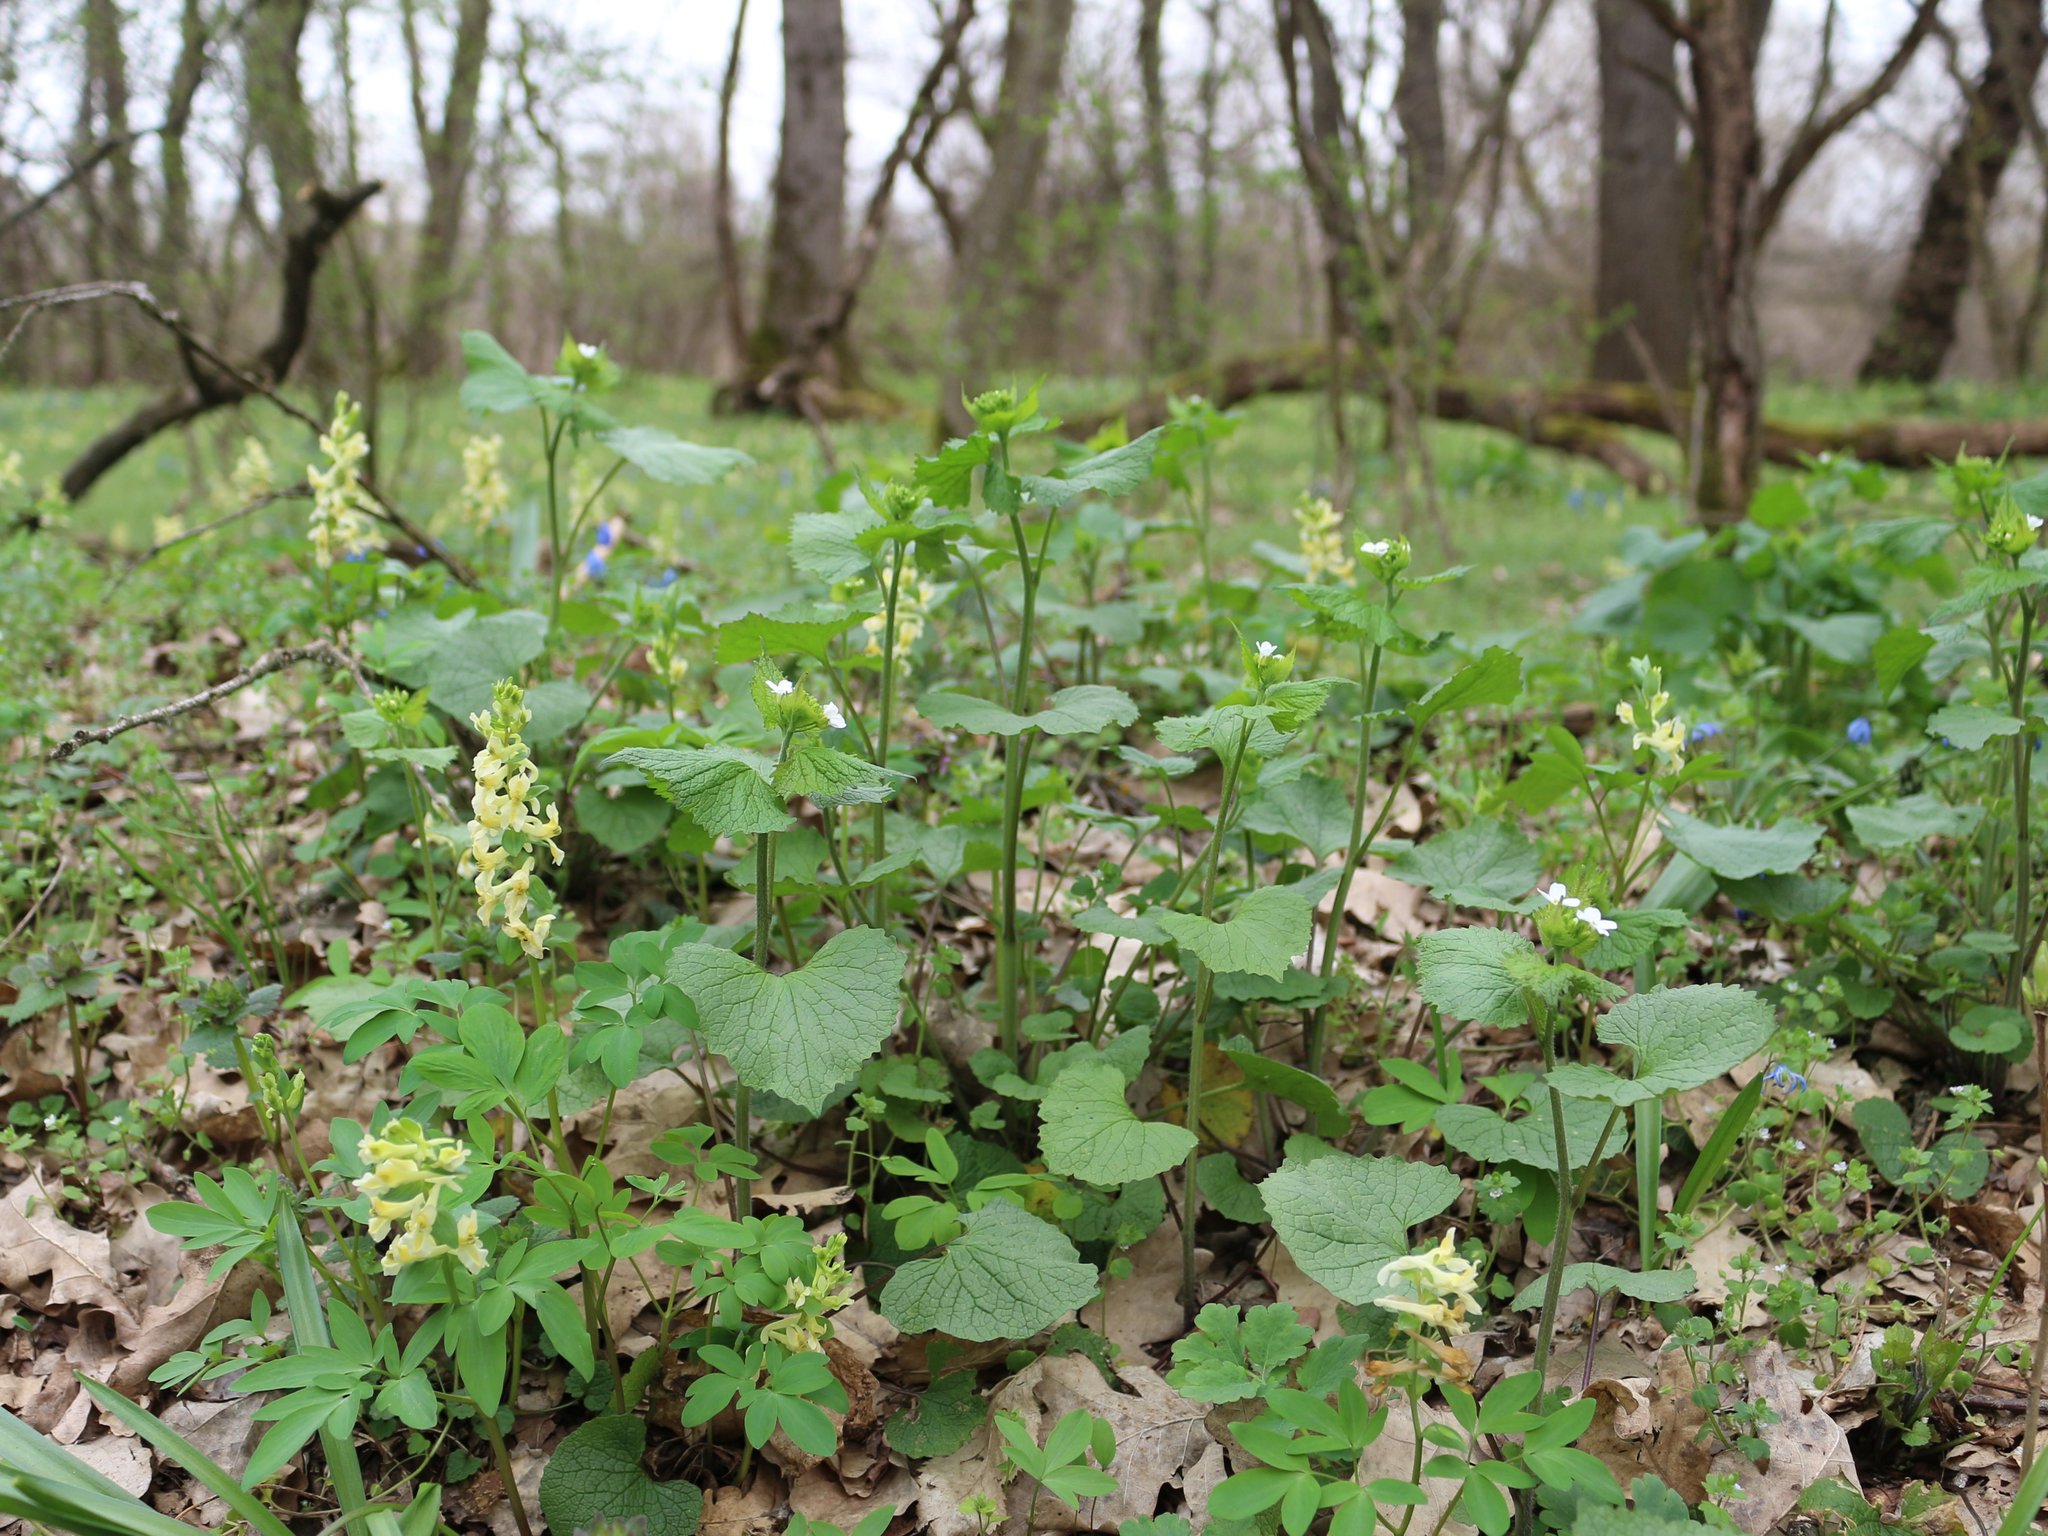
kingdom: Plantae
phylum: Tracheophyta
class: Magnoliopsida
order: Brassicales
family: Brassicaceae
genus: Alliaria
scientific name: Alliaria petiolata
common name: Garlic mustard
